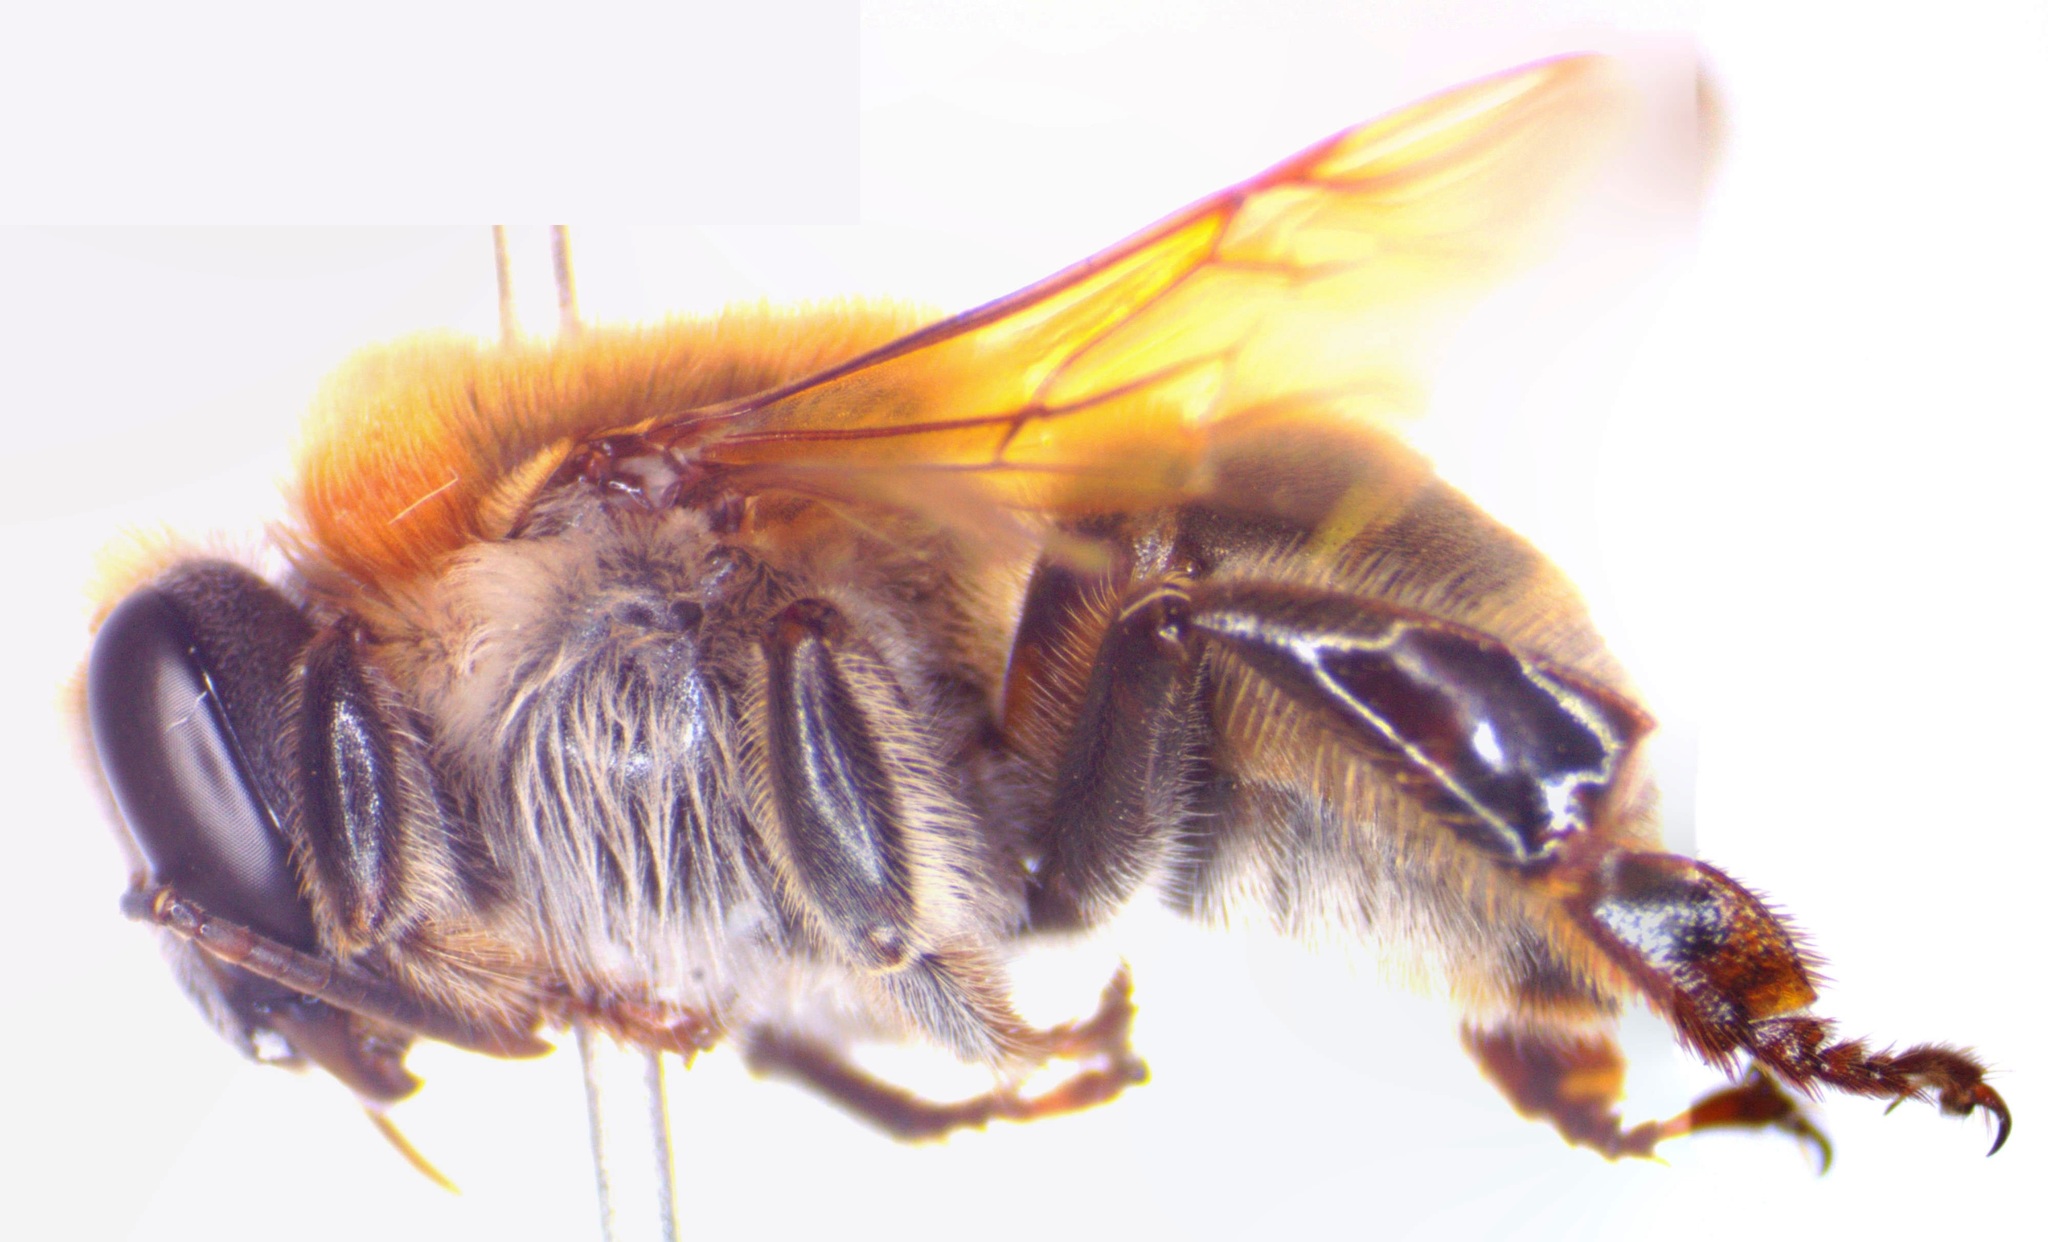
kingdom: Animalia
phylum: Arthropoda
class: Insecta
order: Hymenoptera
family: Apidae
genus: Melipona
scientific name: Melipona beecheii
